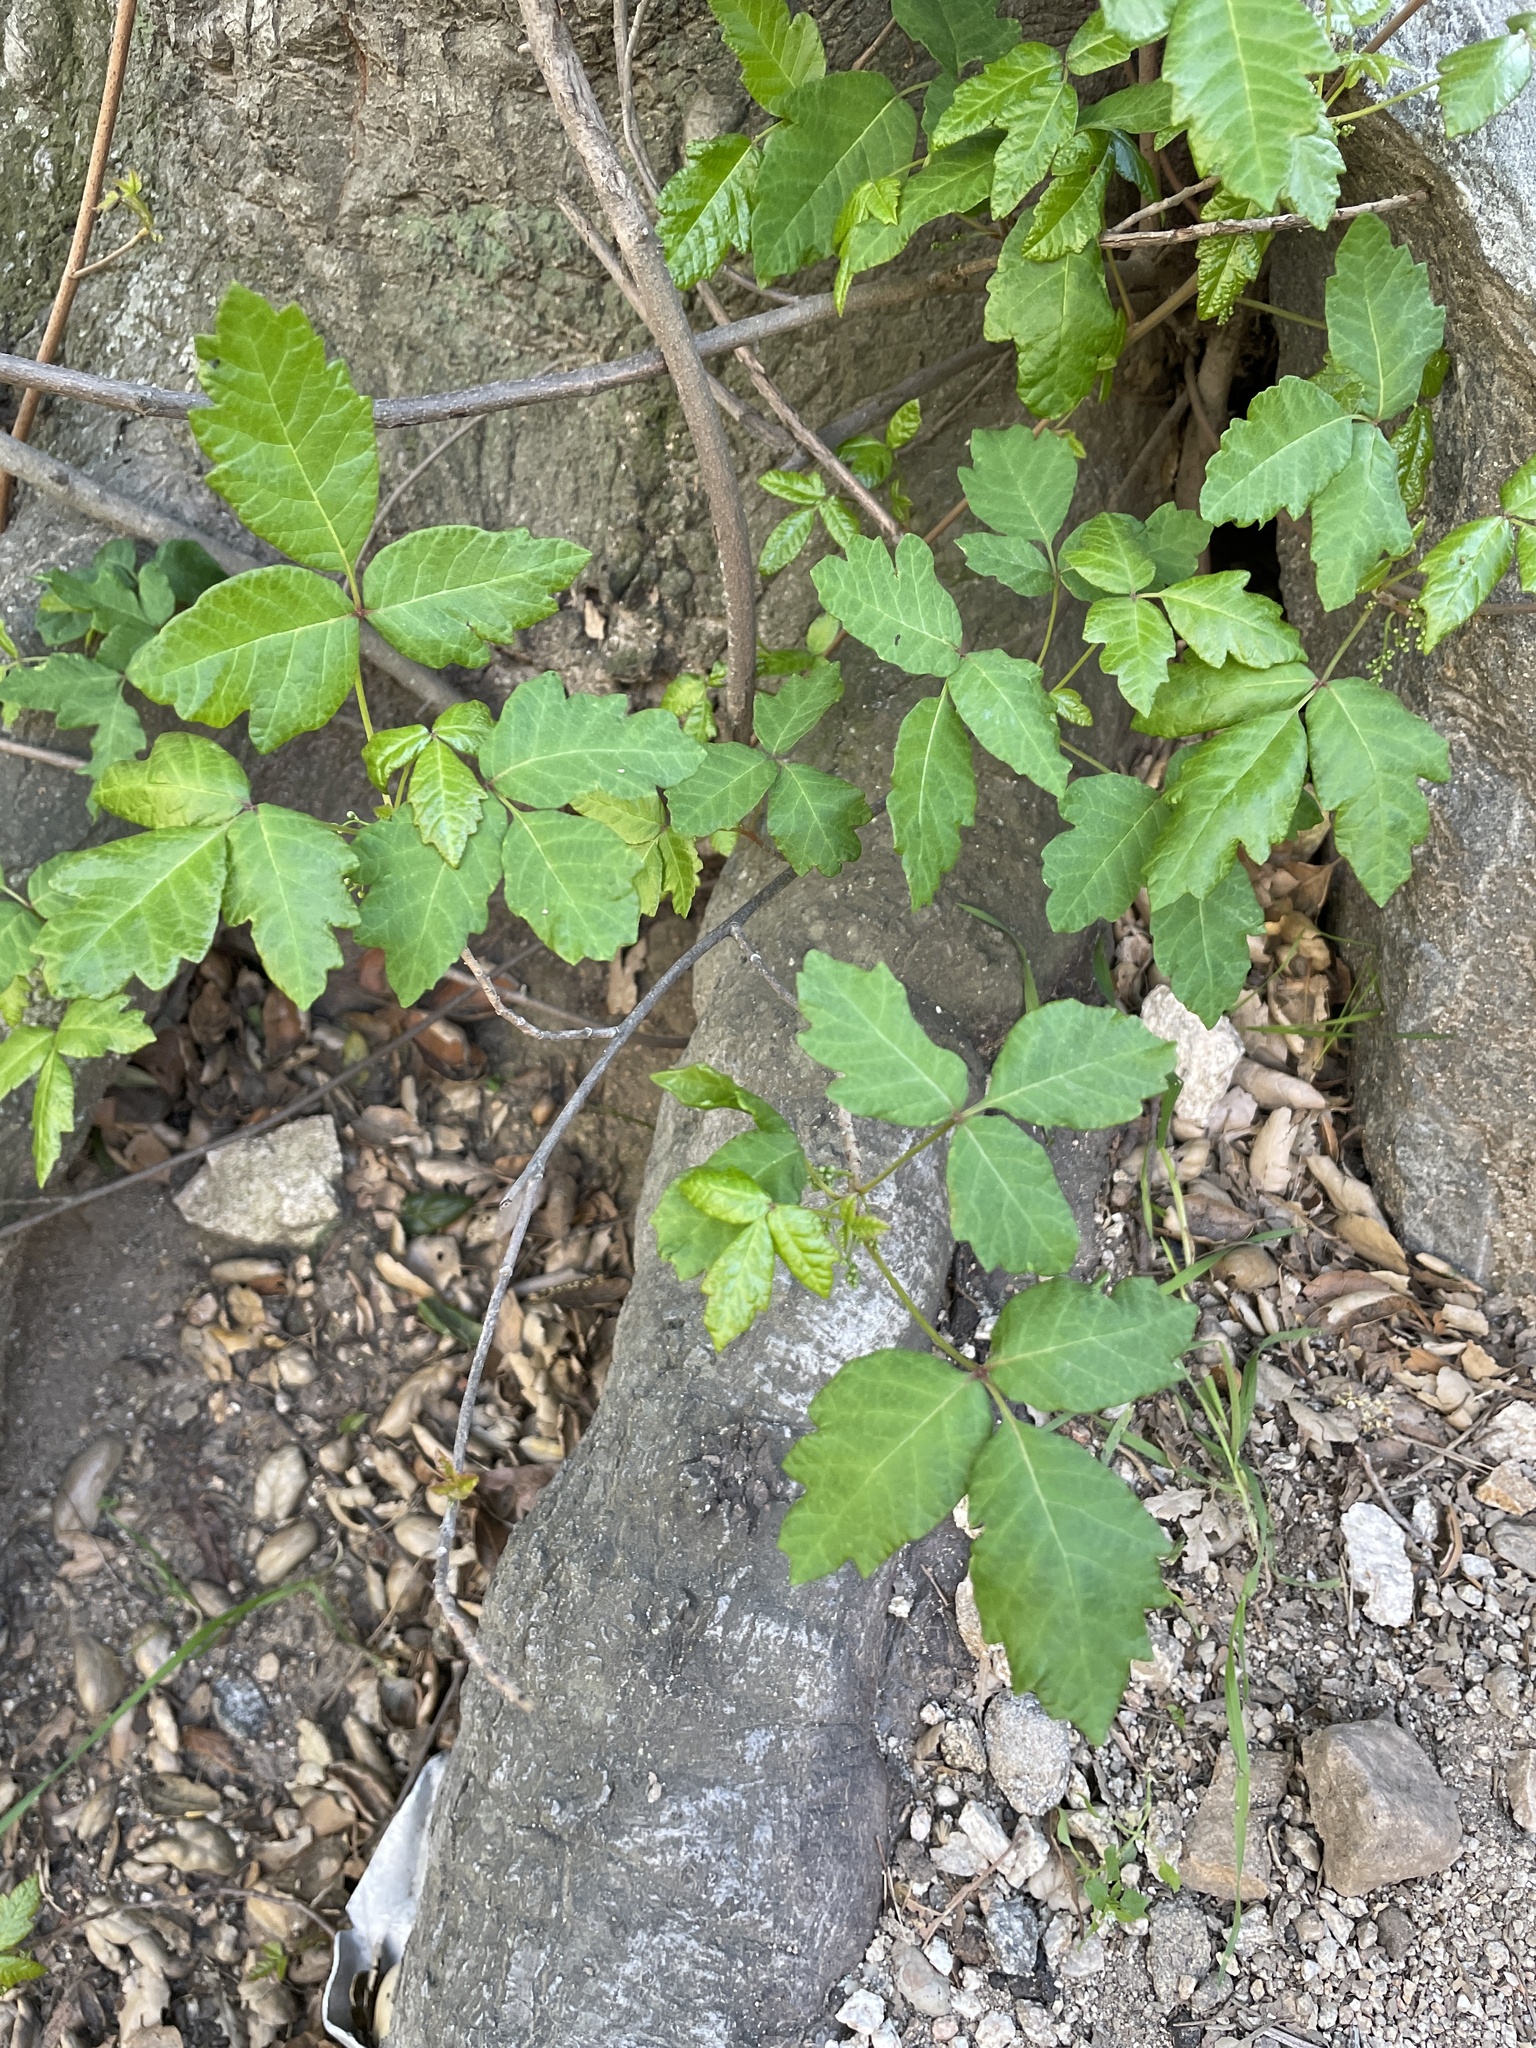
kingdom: Plantae
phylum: Tracheophyta
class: Magnoliopsida
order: Sapindales
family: Anacardiaceae
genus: Toxicodendron
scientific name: Toxicodendron diversilobum
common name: Pacific poison-oak
